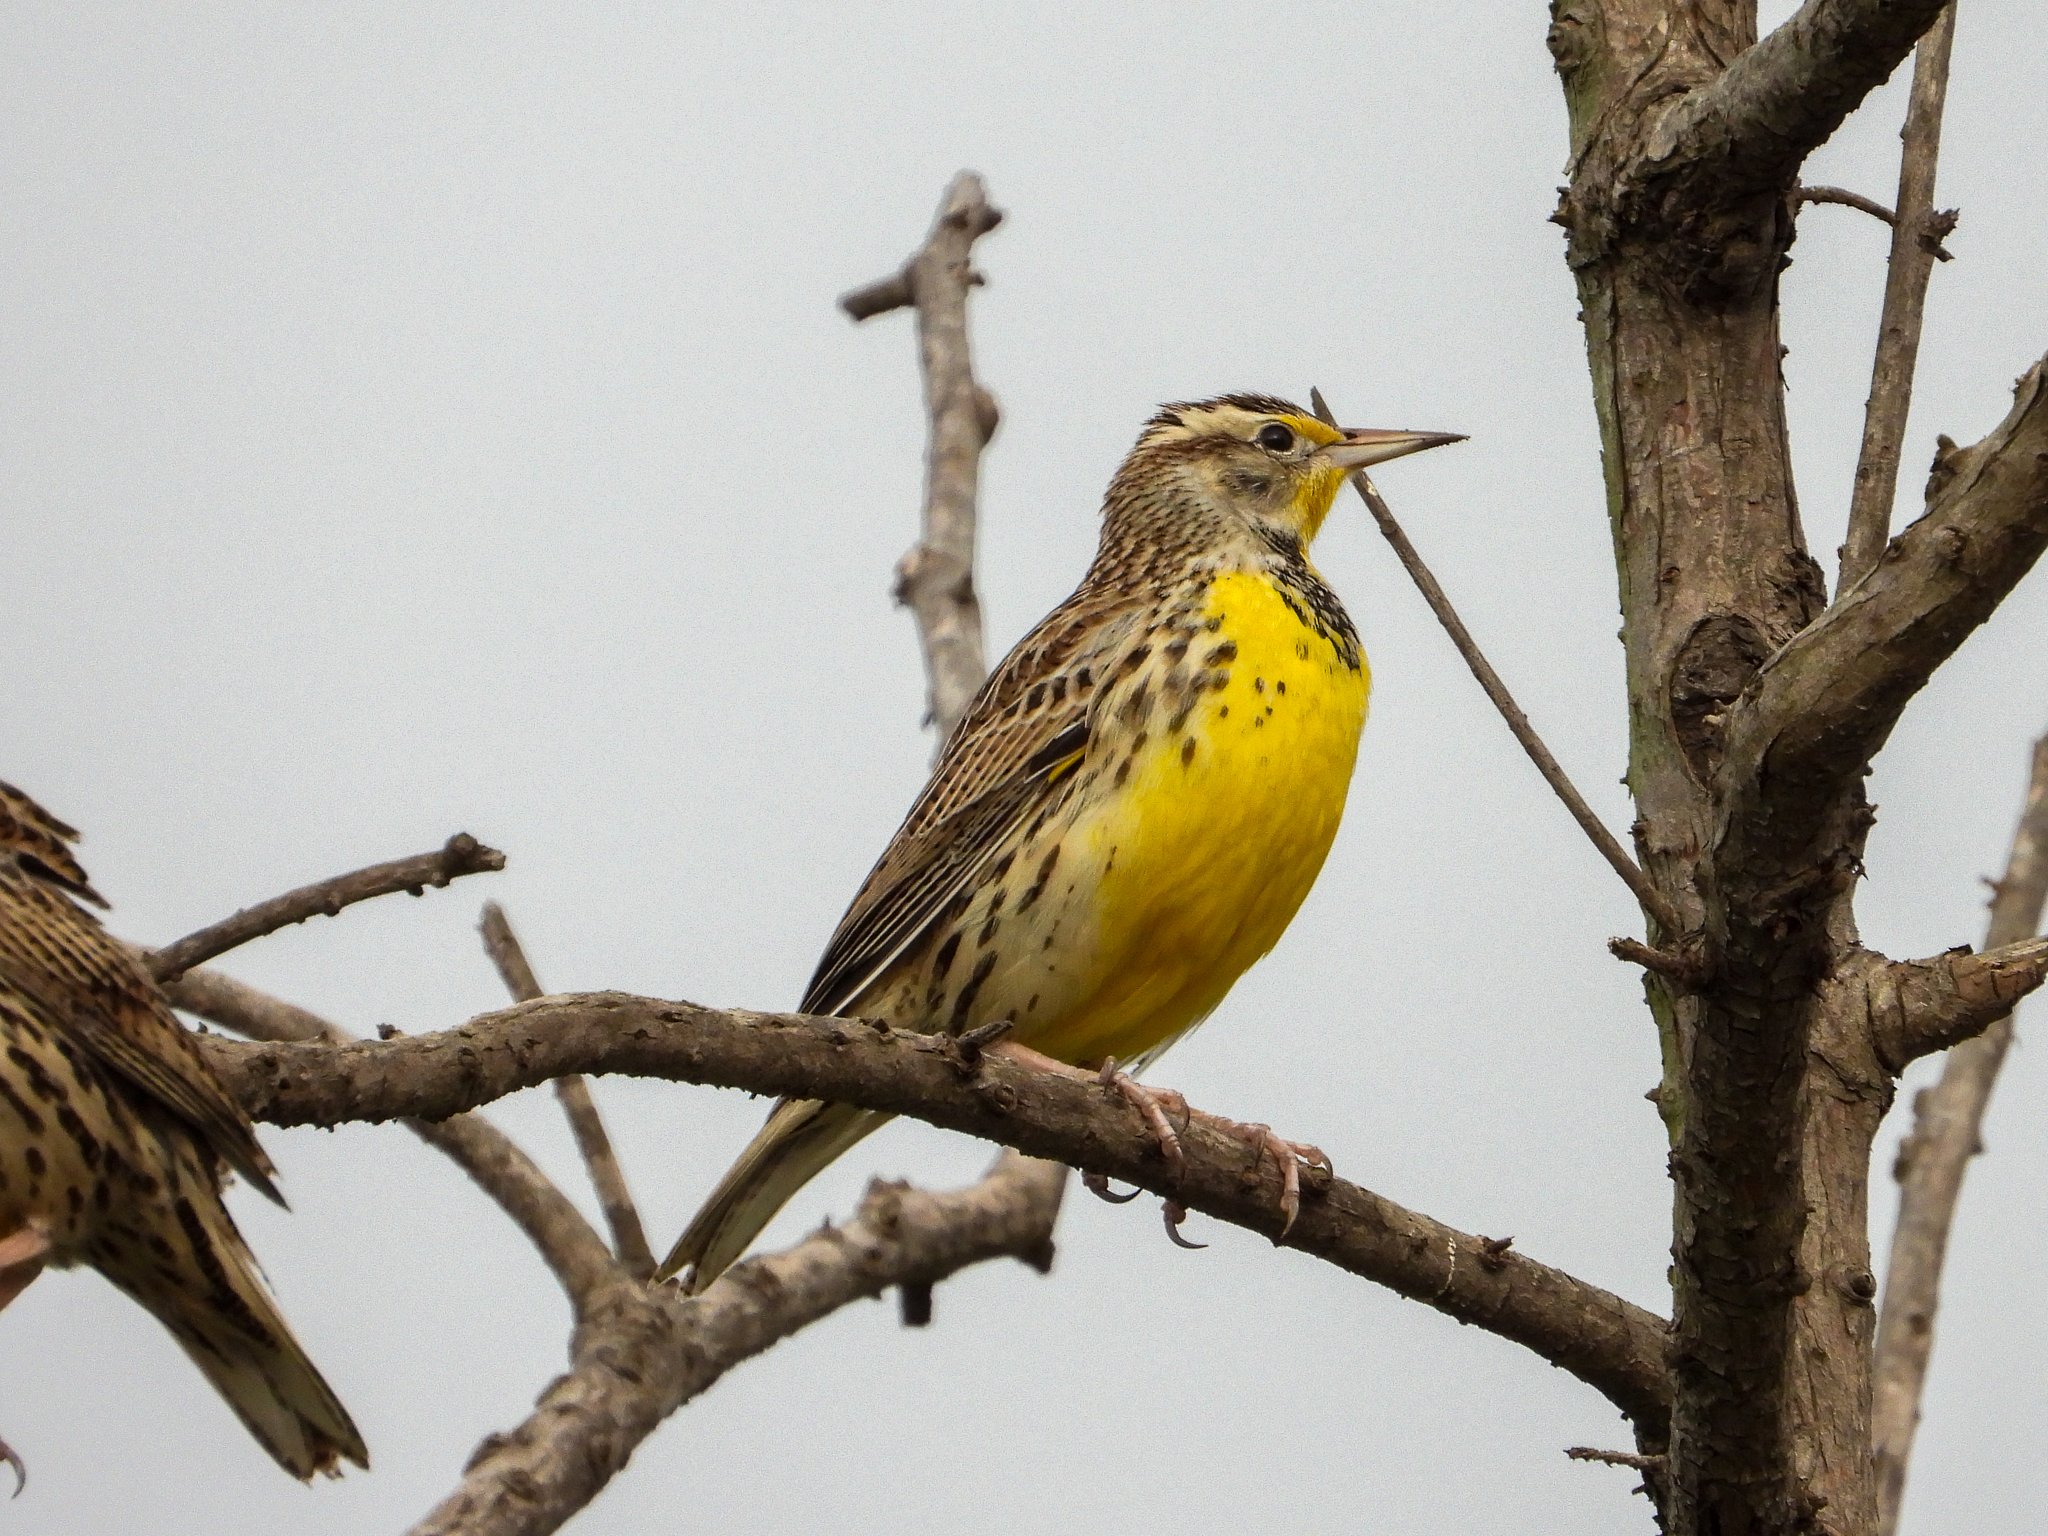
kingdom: Animalia
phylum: Chordata
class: Aves
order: Passeriformes
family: Icteridae
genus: Sturnella
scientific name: Sturnella neglecta
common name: Western meadowlark
